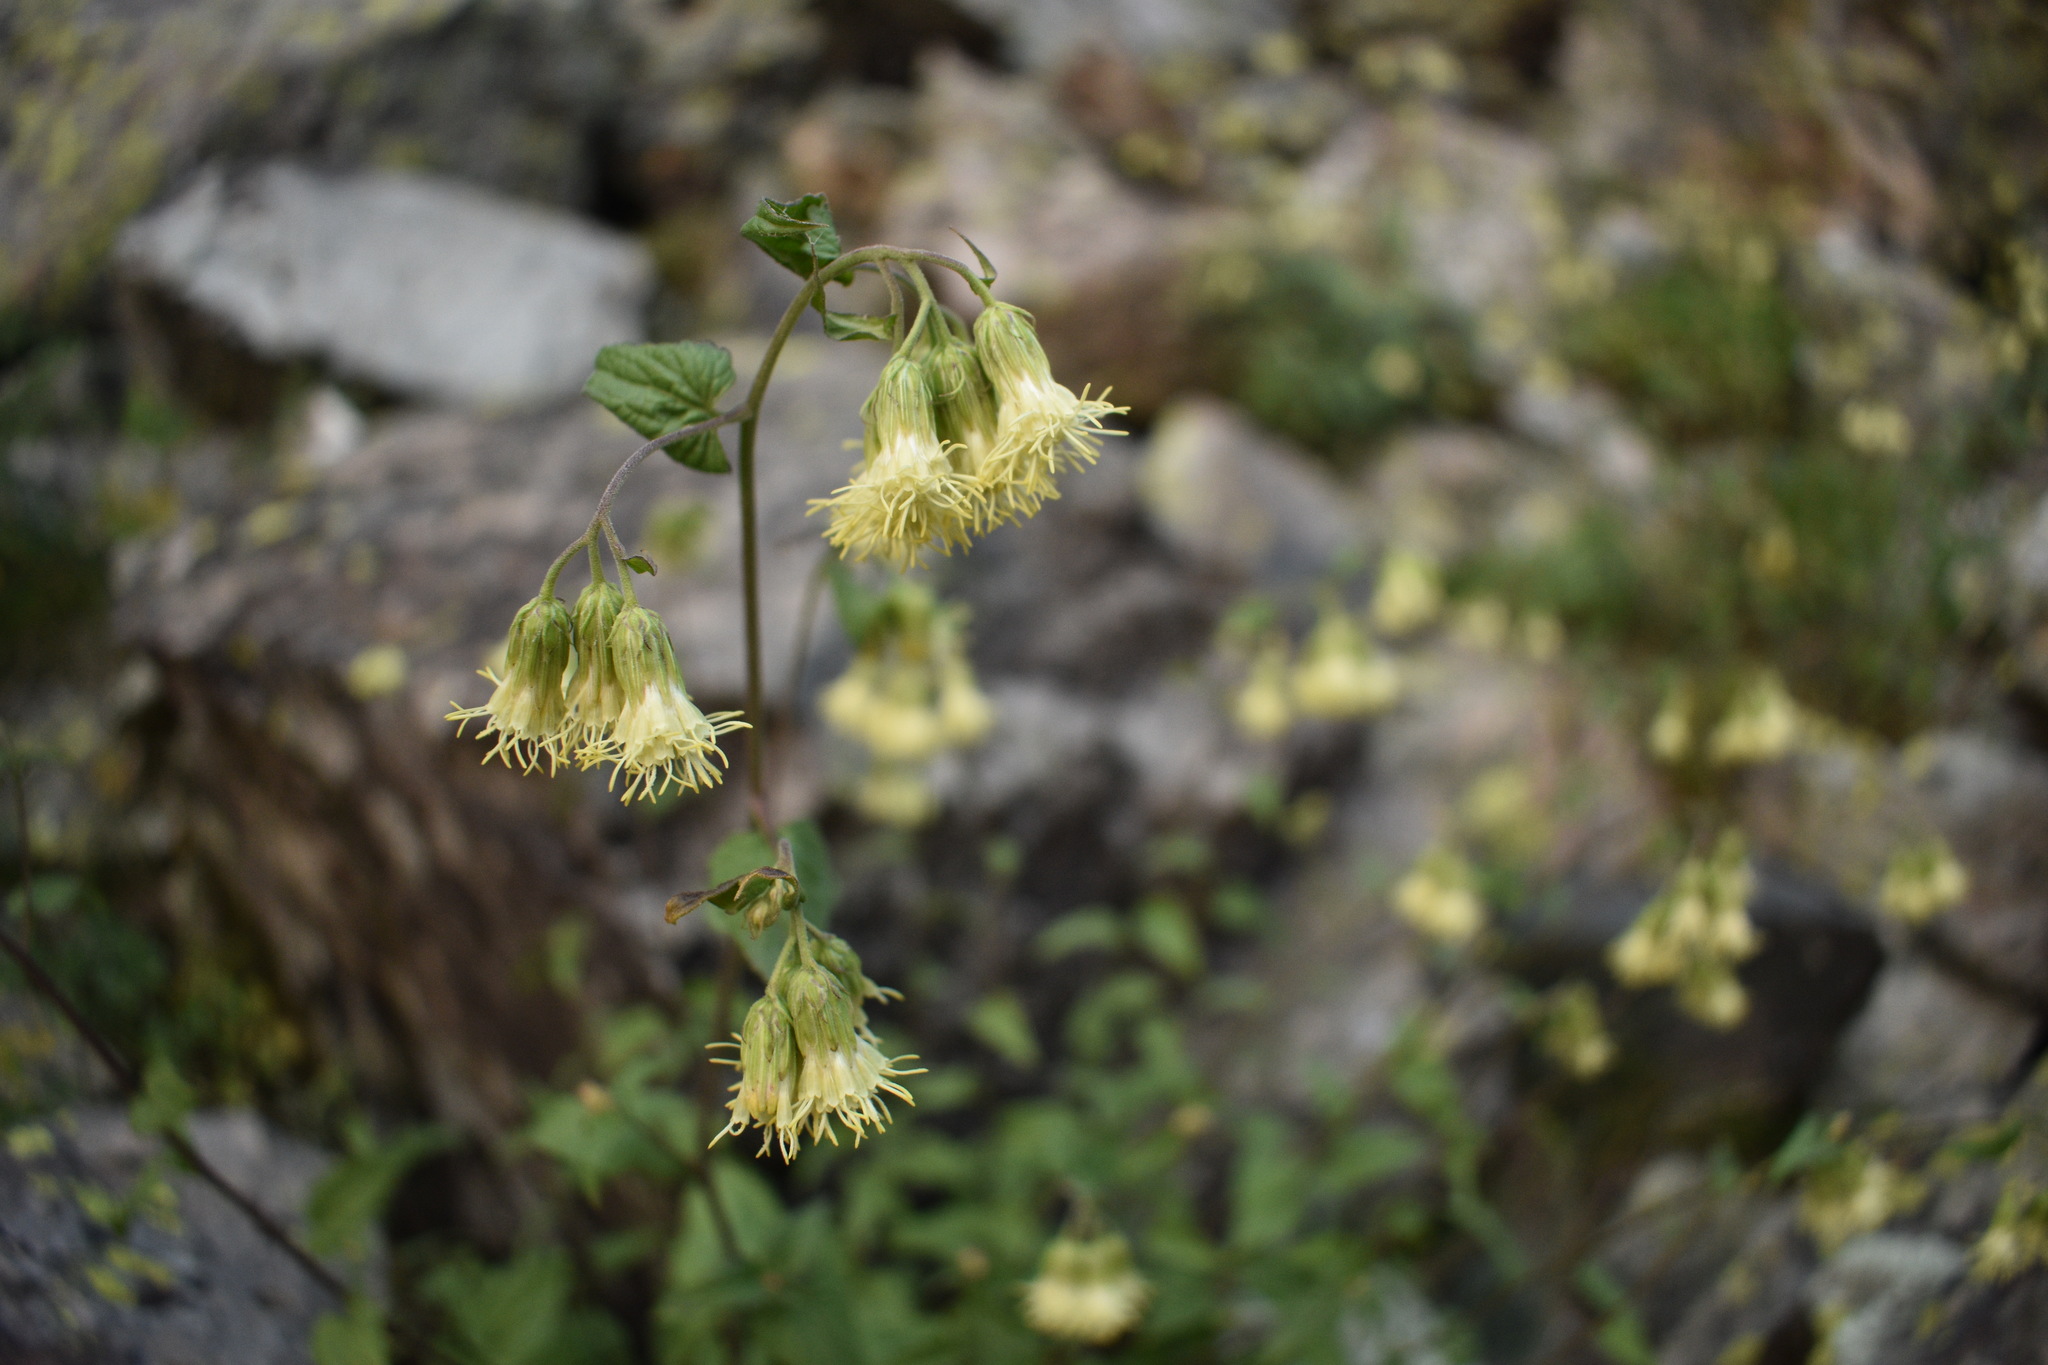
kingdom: Plantae
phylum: Tracheophyta
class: Magnoliopsida
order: Asterales
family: Asteraceae
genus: Brickellia
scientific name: Brickellia grandiflora
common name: Large-flowered brickellia
